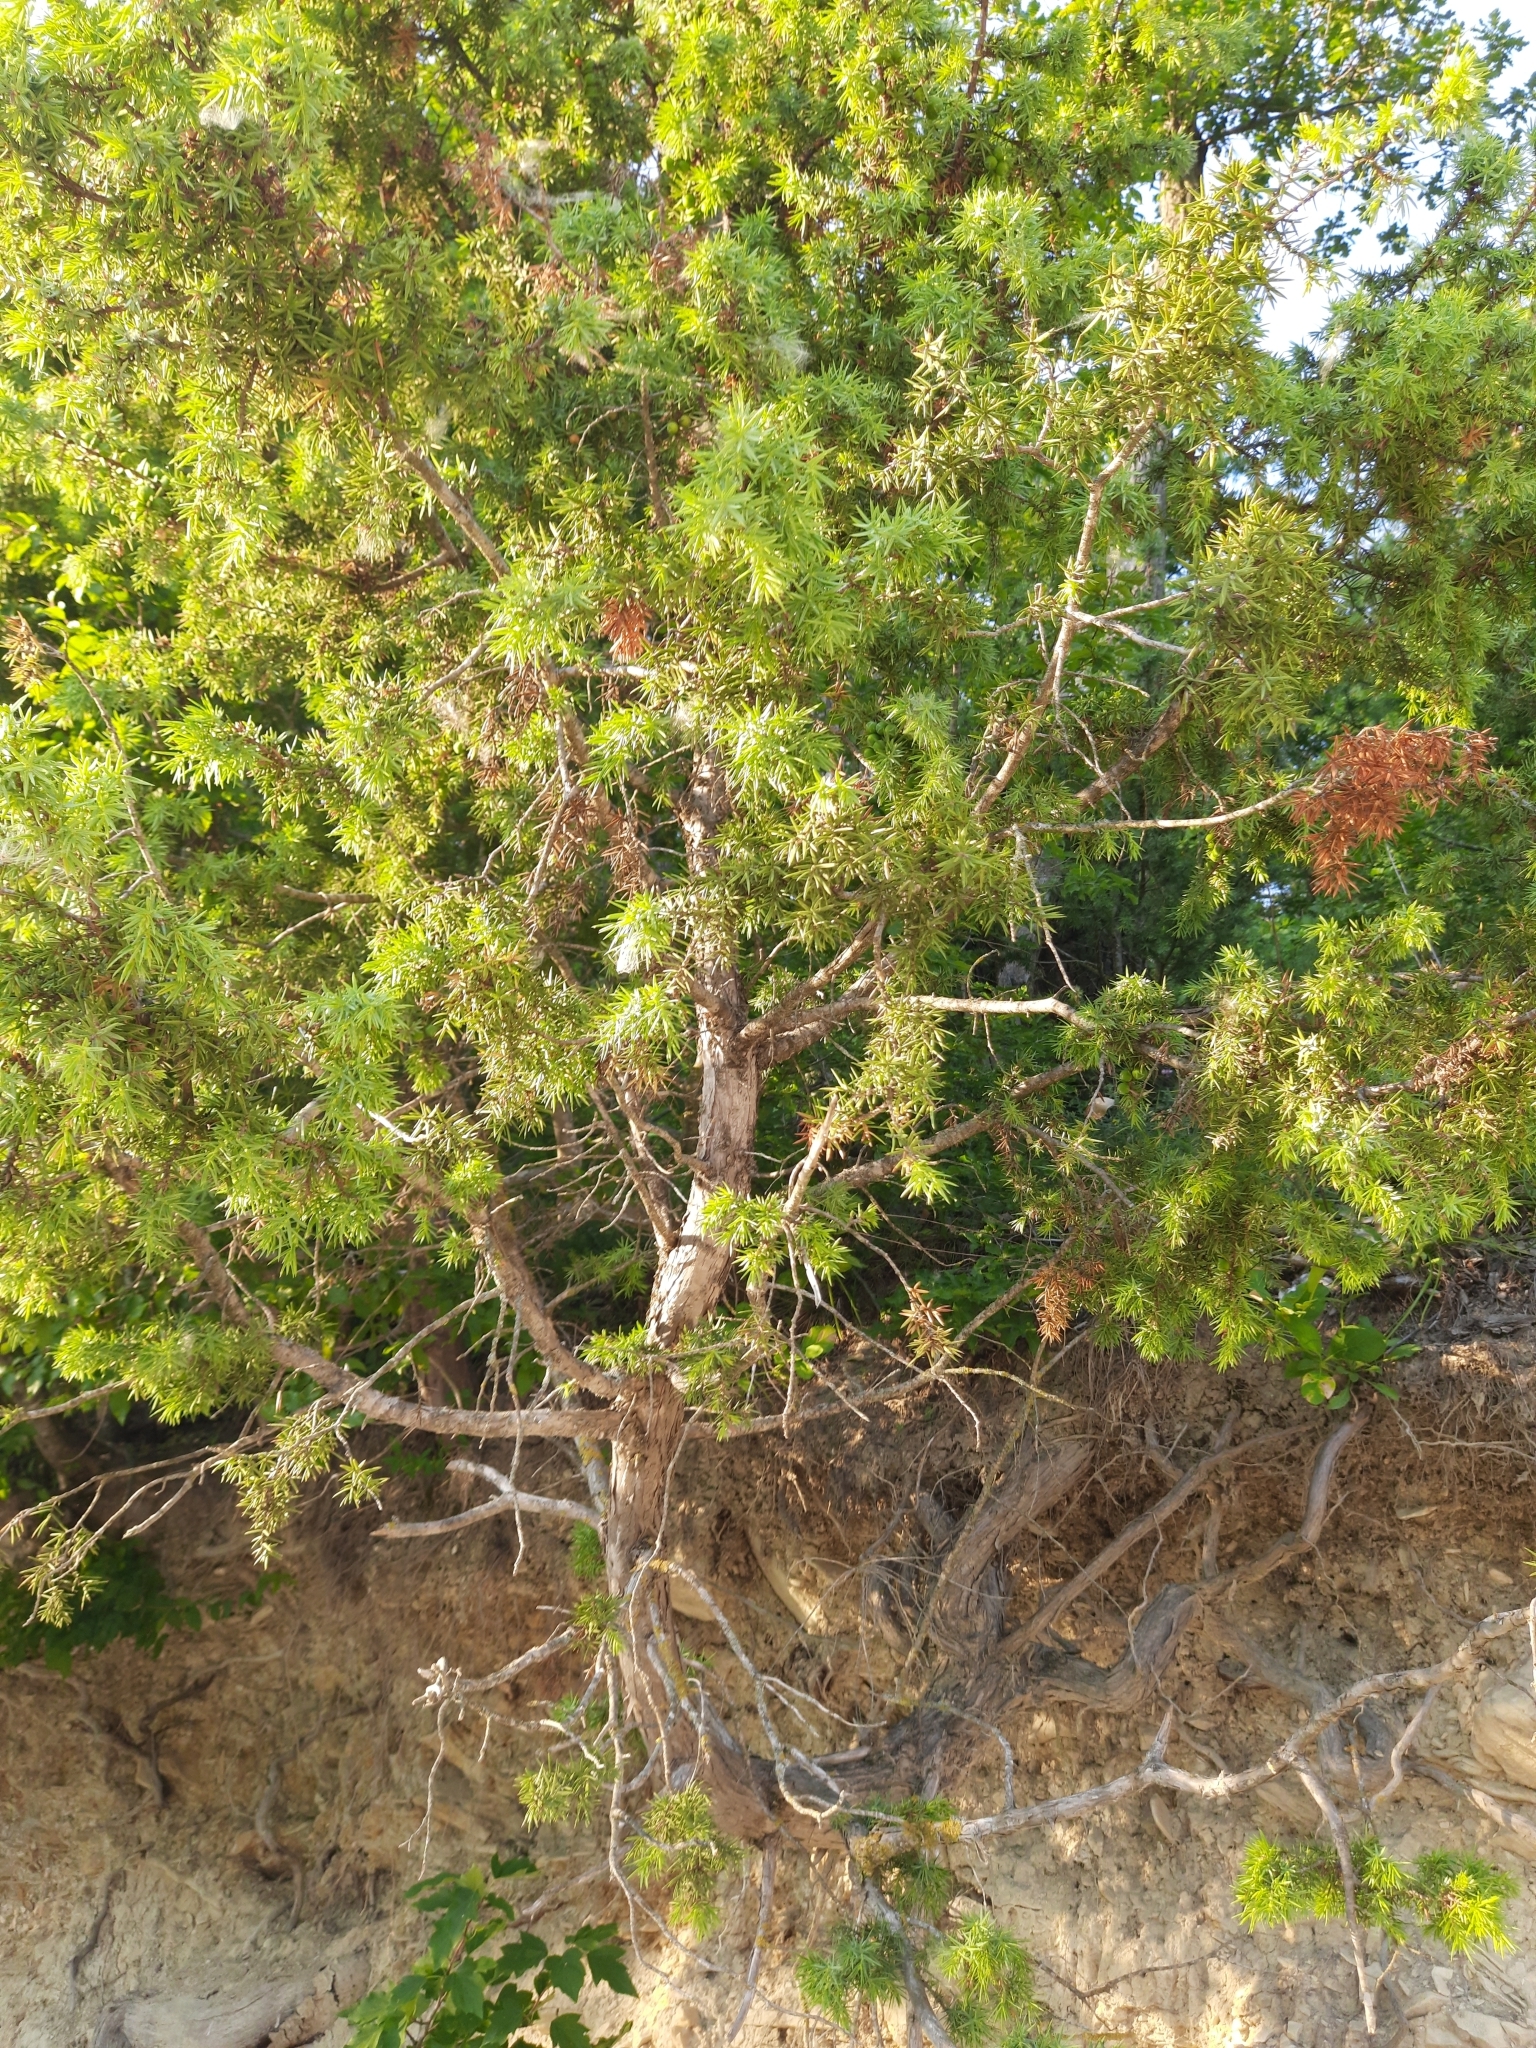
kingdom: Plantae
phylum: Tracheophyta
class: Pinopsida
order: Pinales
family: Cupressaceae
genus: Juniperus
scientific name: Juniperus oxycedrus
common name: Prickly juniper
